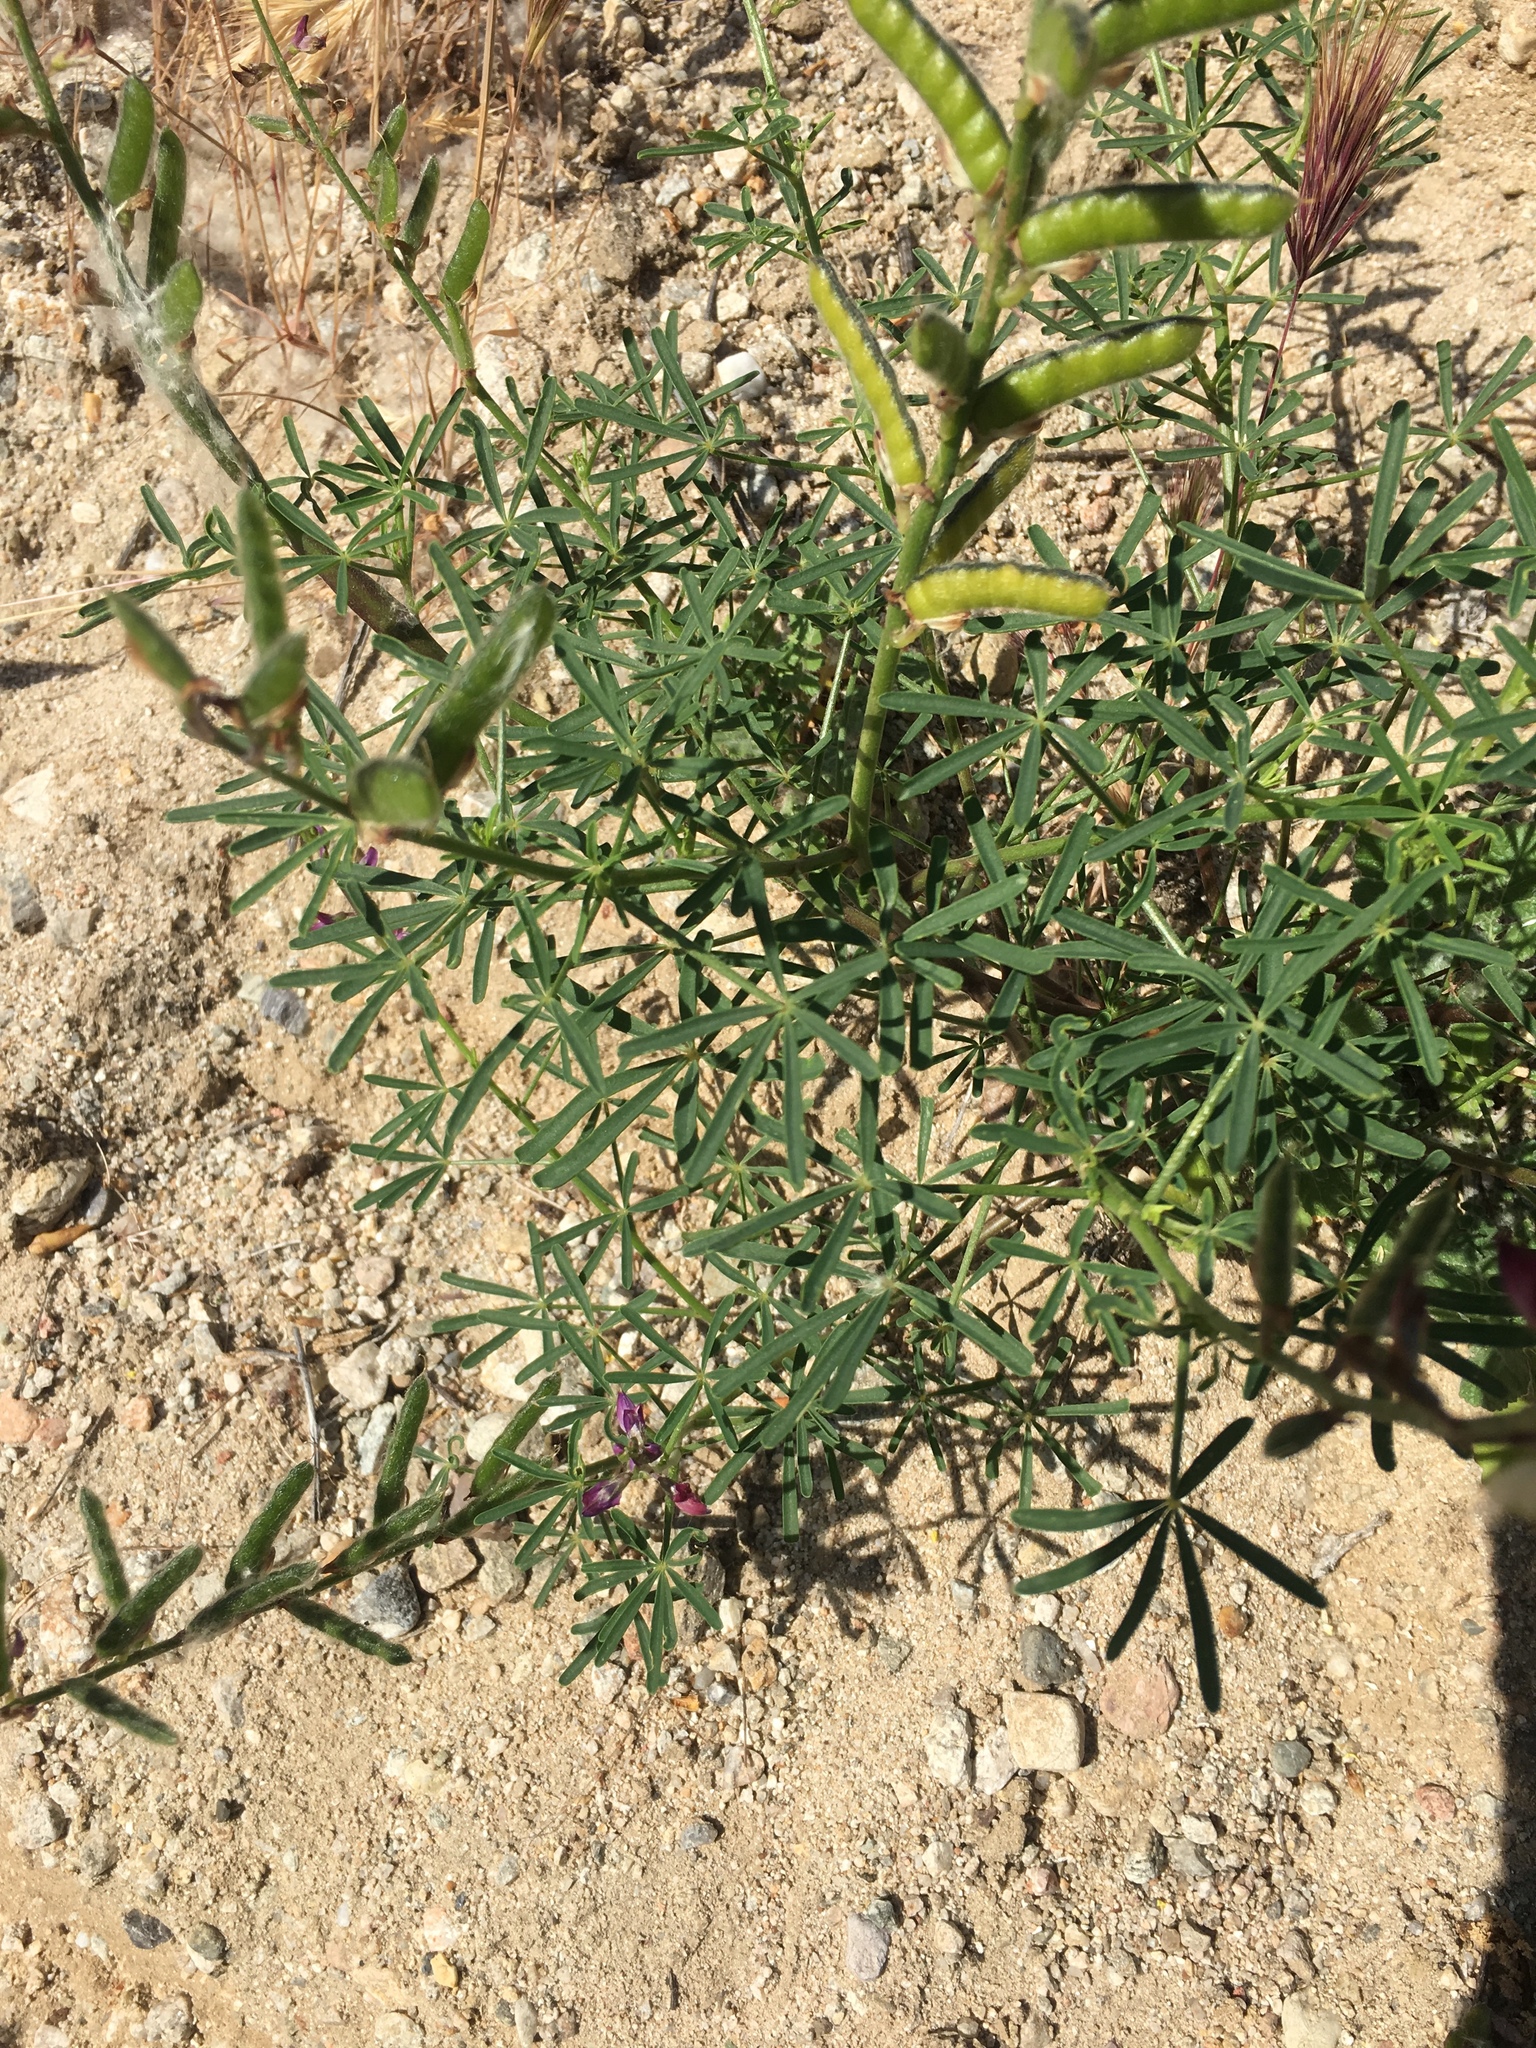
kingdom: Plantae
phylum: Tracheophyta
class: Magnoliopsida
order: Fabales
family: Fabaceae
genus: Lupinus
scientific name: Lupinus truncatus
